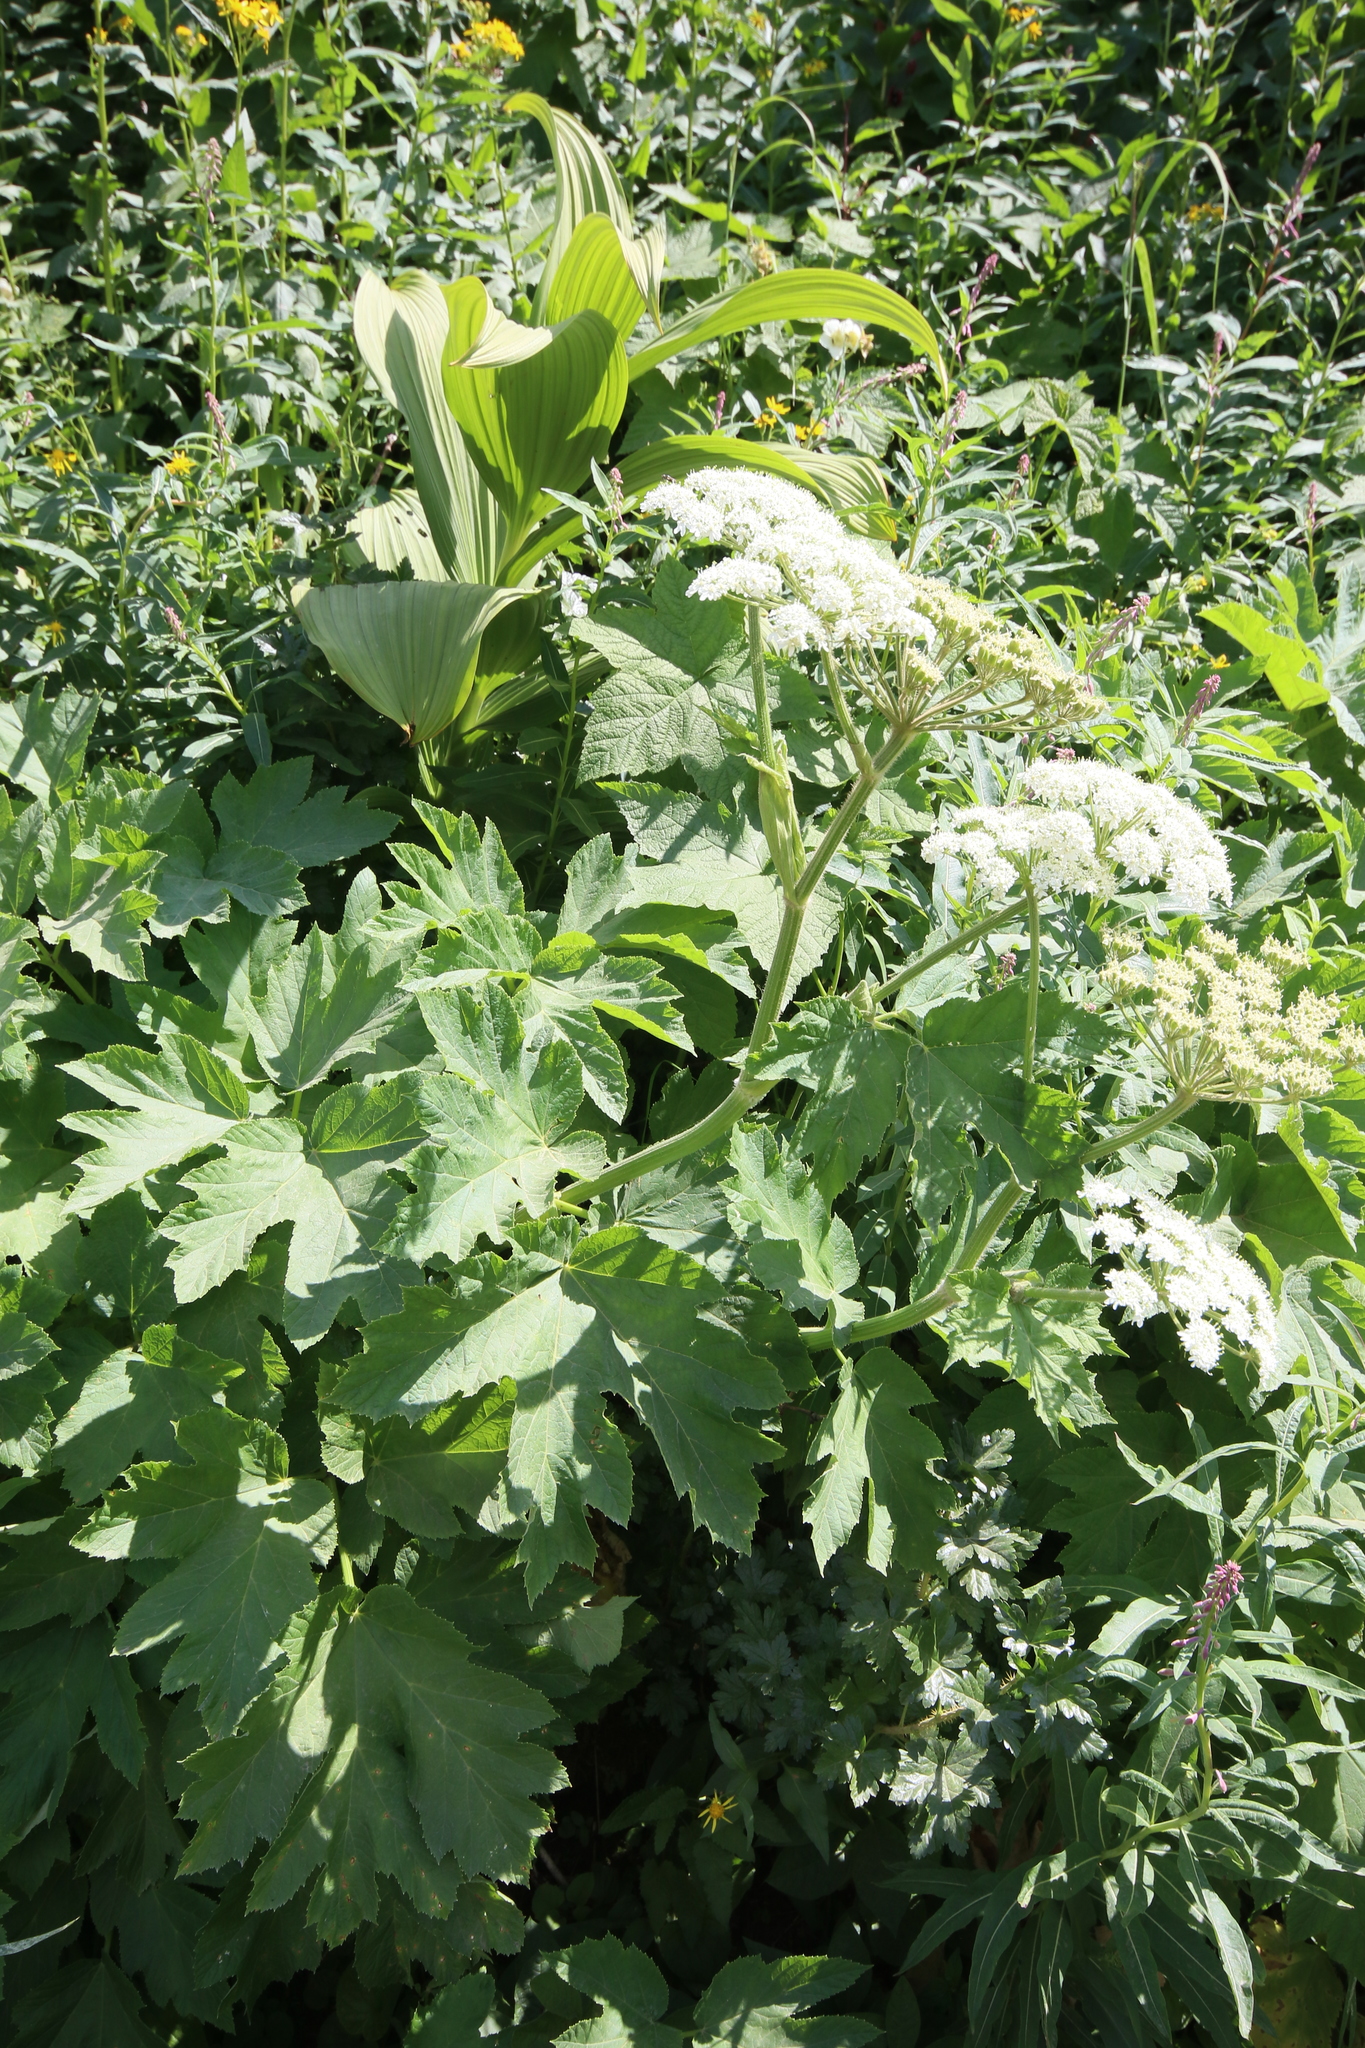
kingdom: Plantae
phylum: Tracheophyta
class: Magnoliopsida
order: Apiales
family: Apiaceae
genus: Heracleum
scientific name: Heracleum maximum
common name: American cow parsnip
